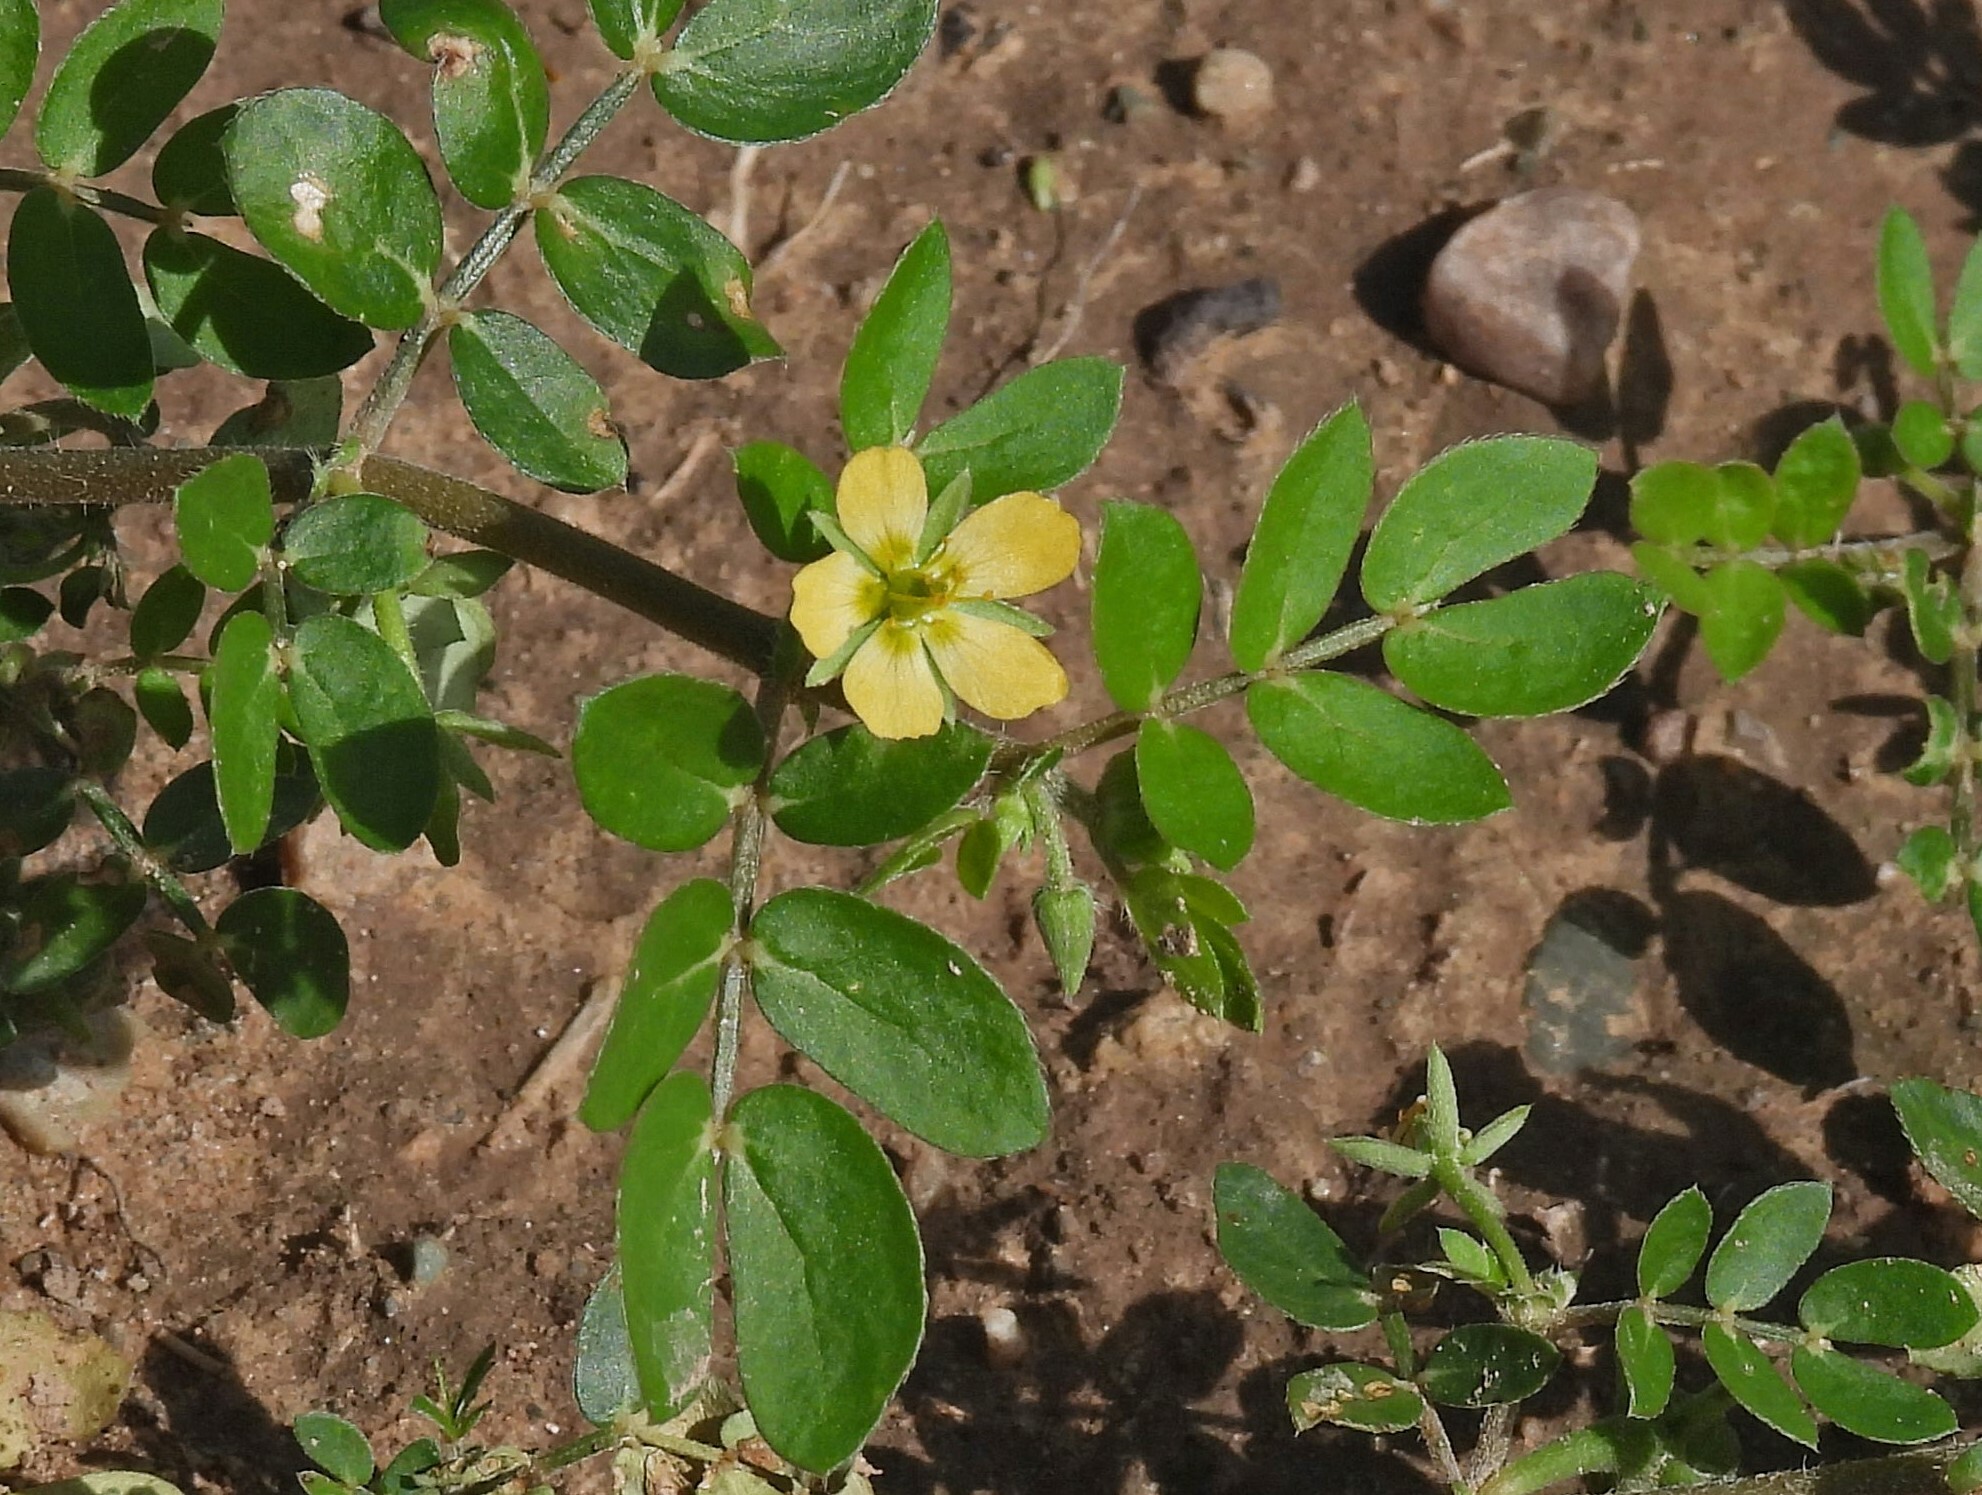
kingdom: Plantae
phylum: Tracheophyta
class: Magnoliopsida
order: Zygophyllales
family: Zygophyllaceae
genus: Kallstroemia
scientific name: Kallstroemia tucumanensis
